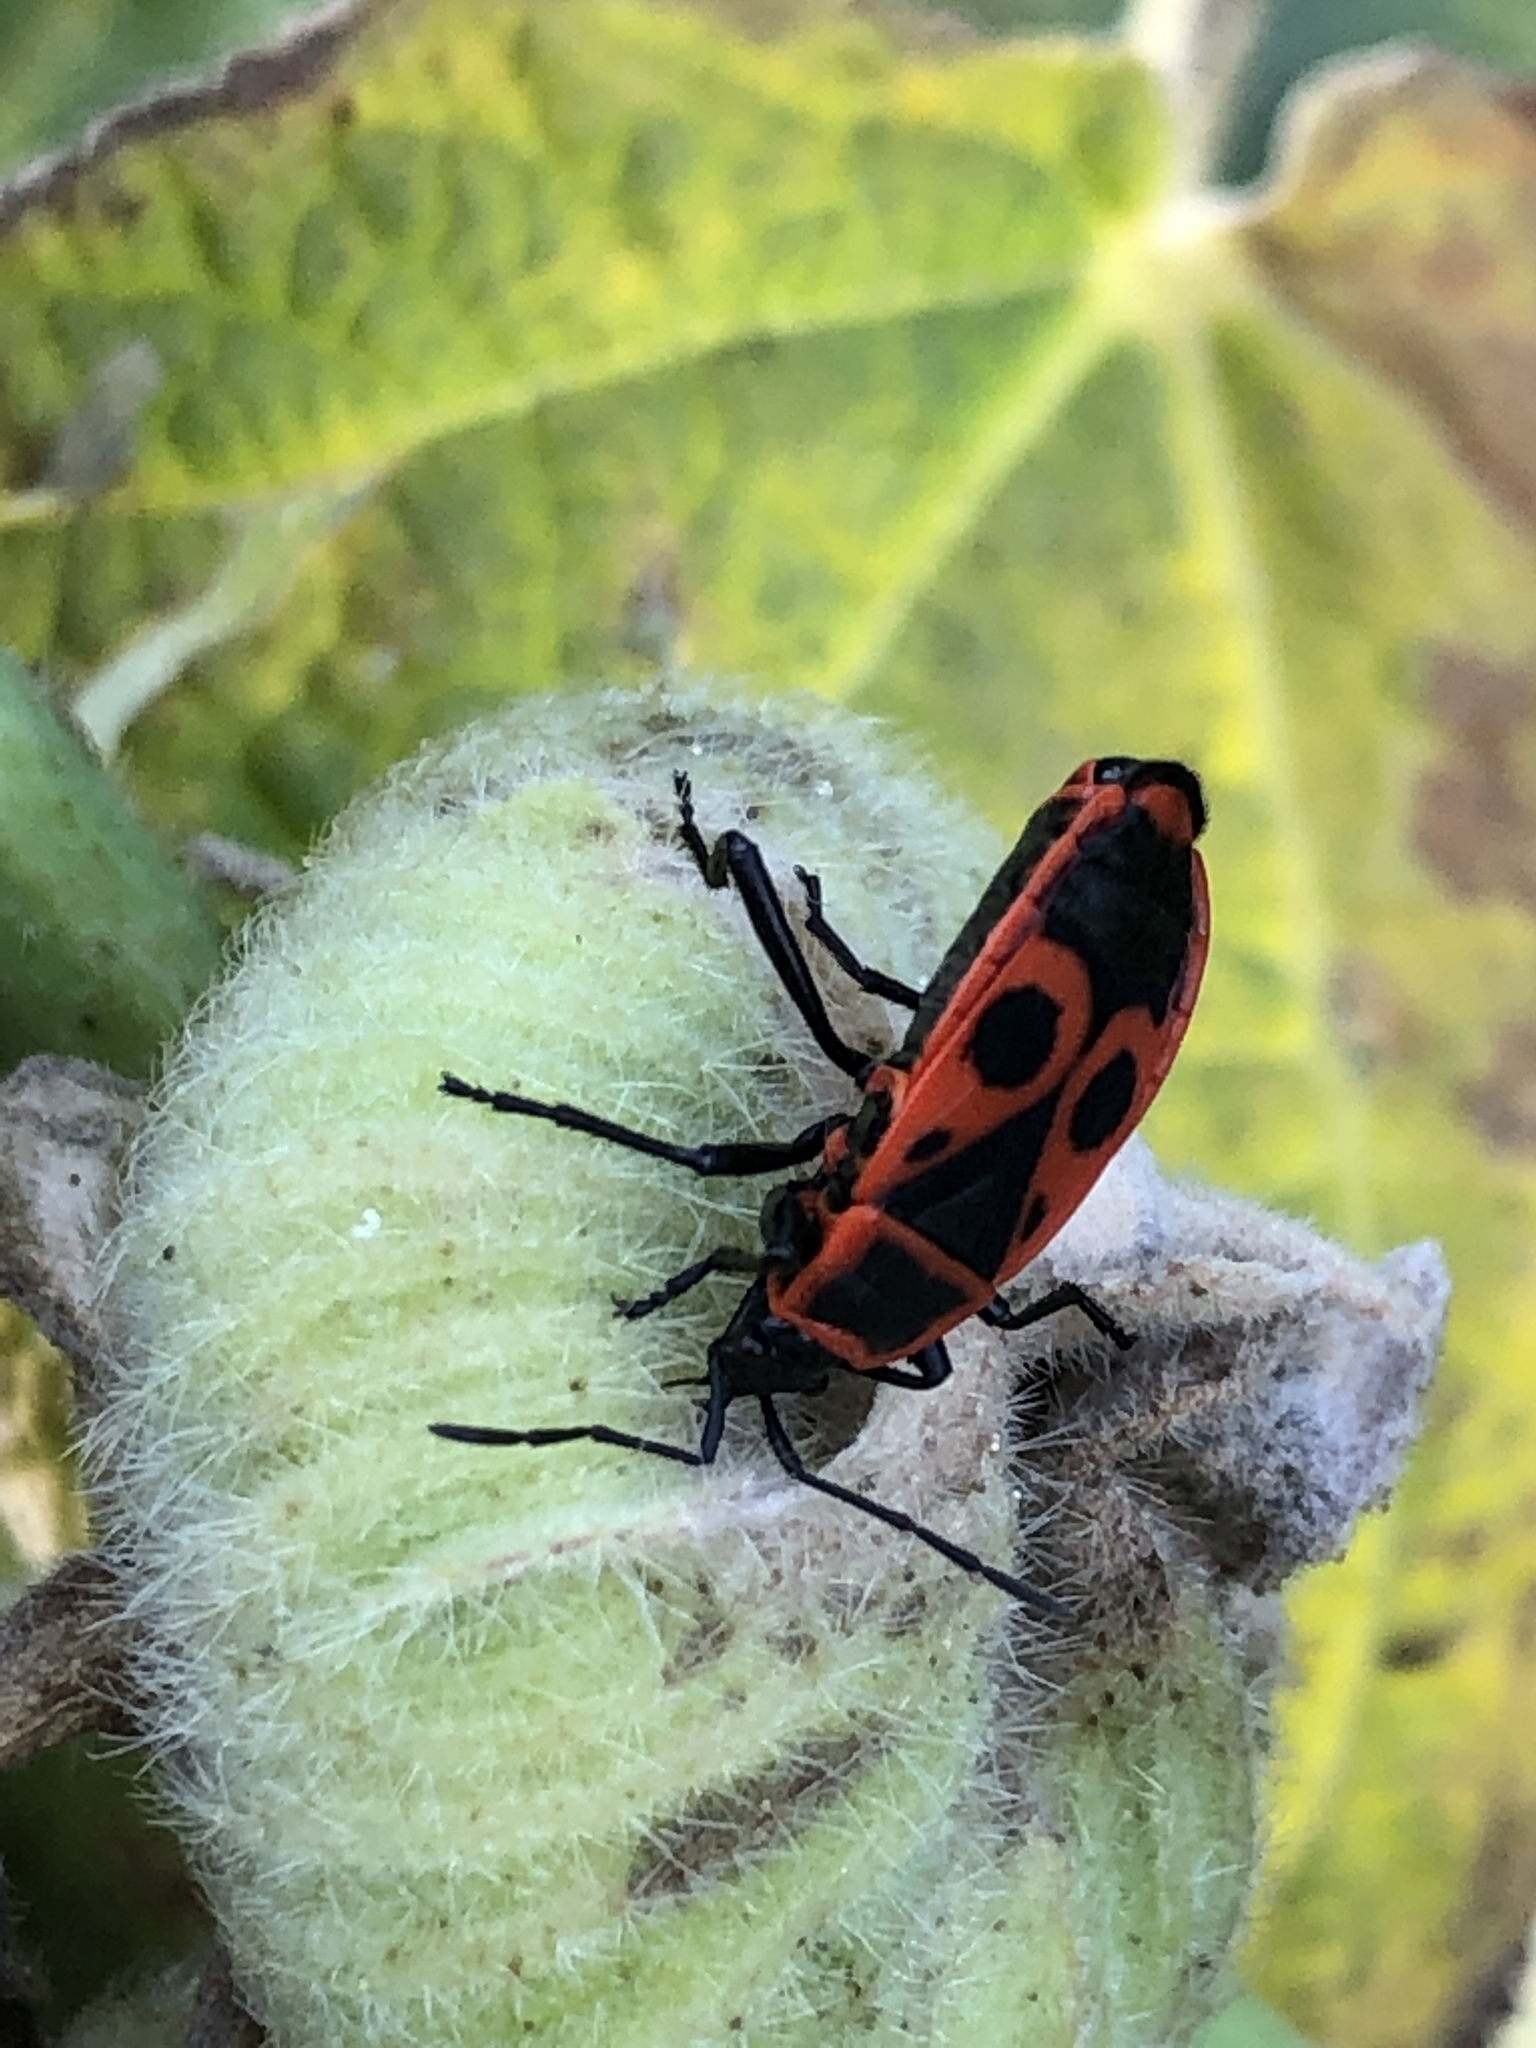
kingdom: Animalia
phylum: Arthropoda
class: Insecta
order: Hemiptera
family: Pyrrhocoridae
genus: Pyrrhocoris
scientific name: Pyrrhocoris apterus
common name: Firebug
